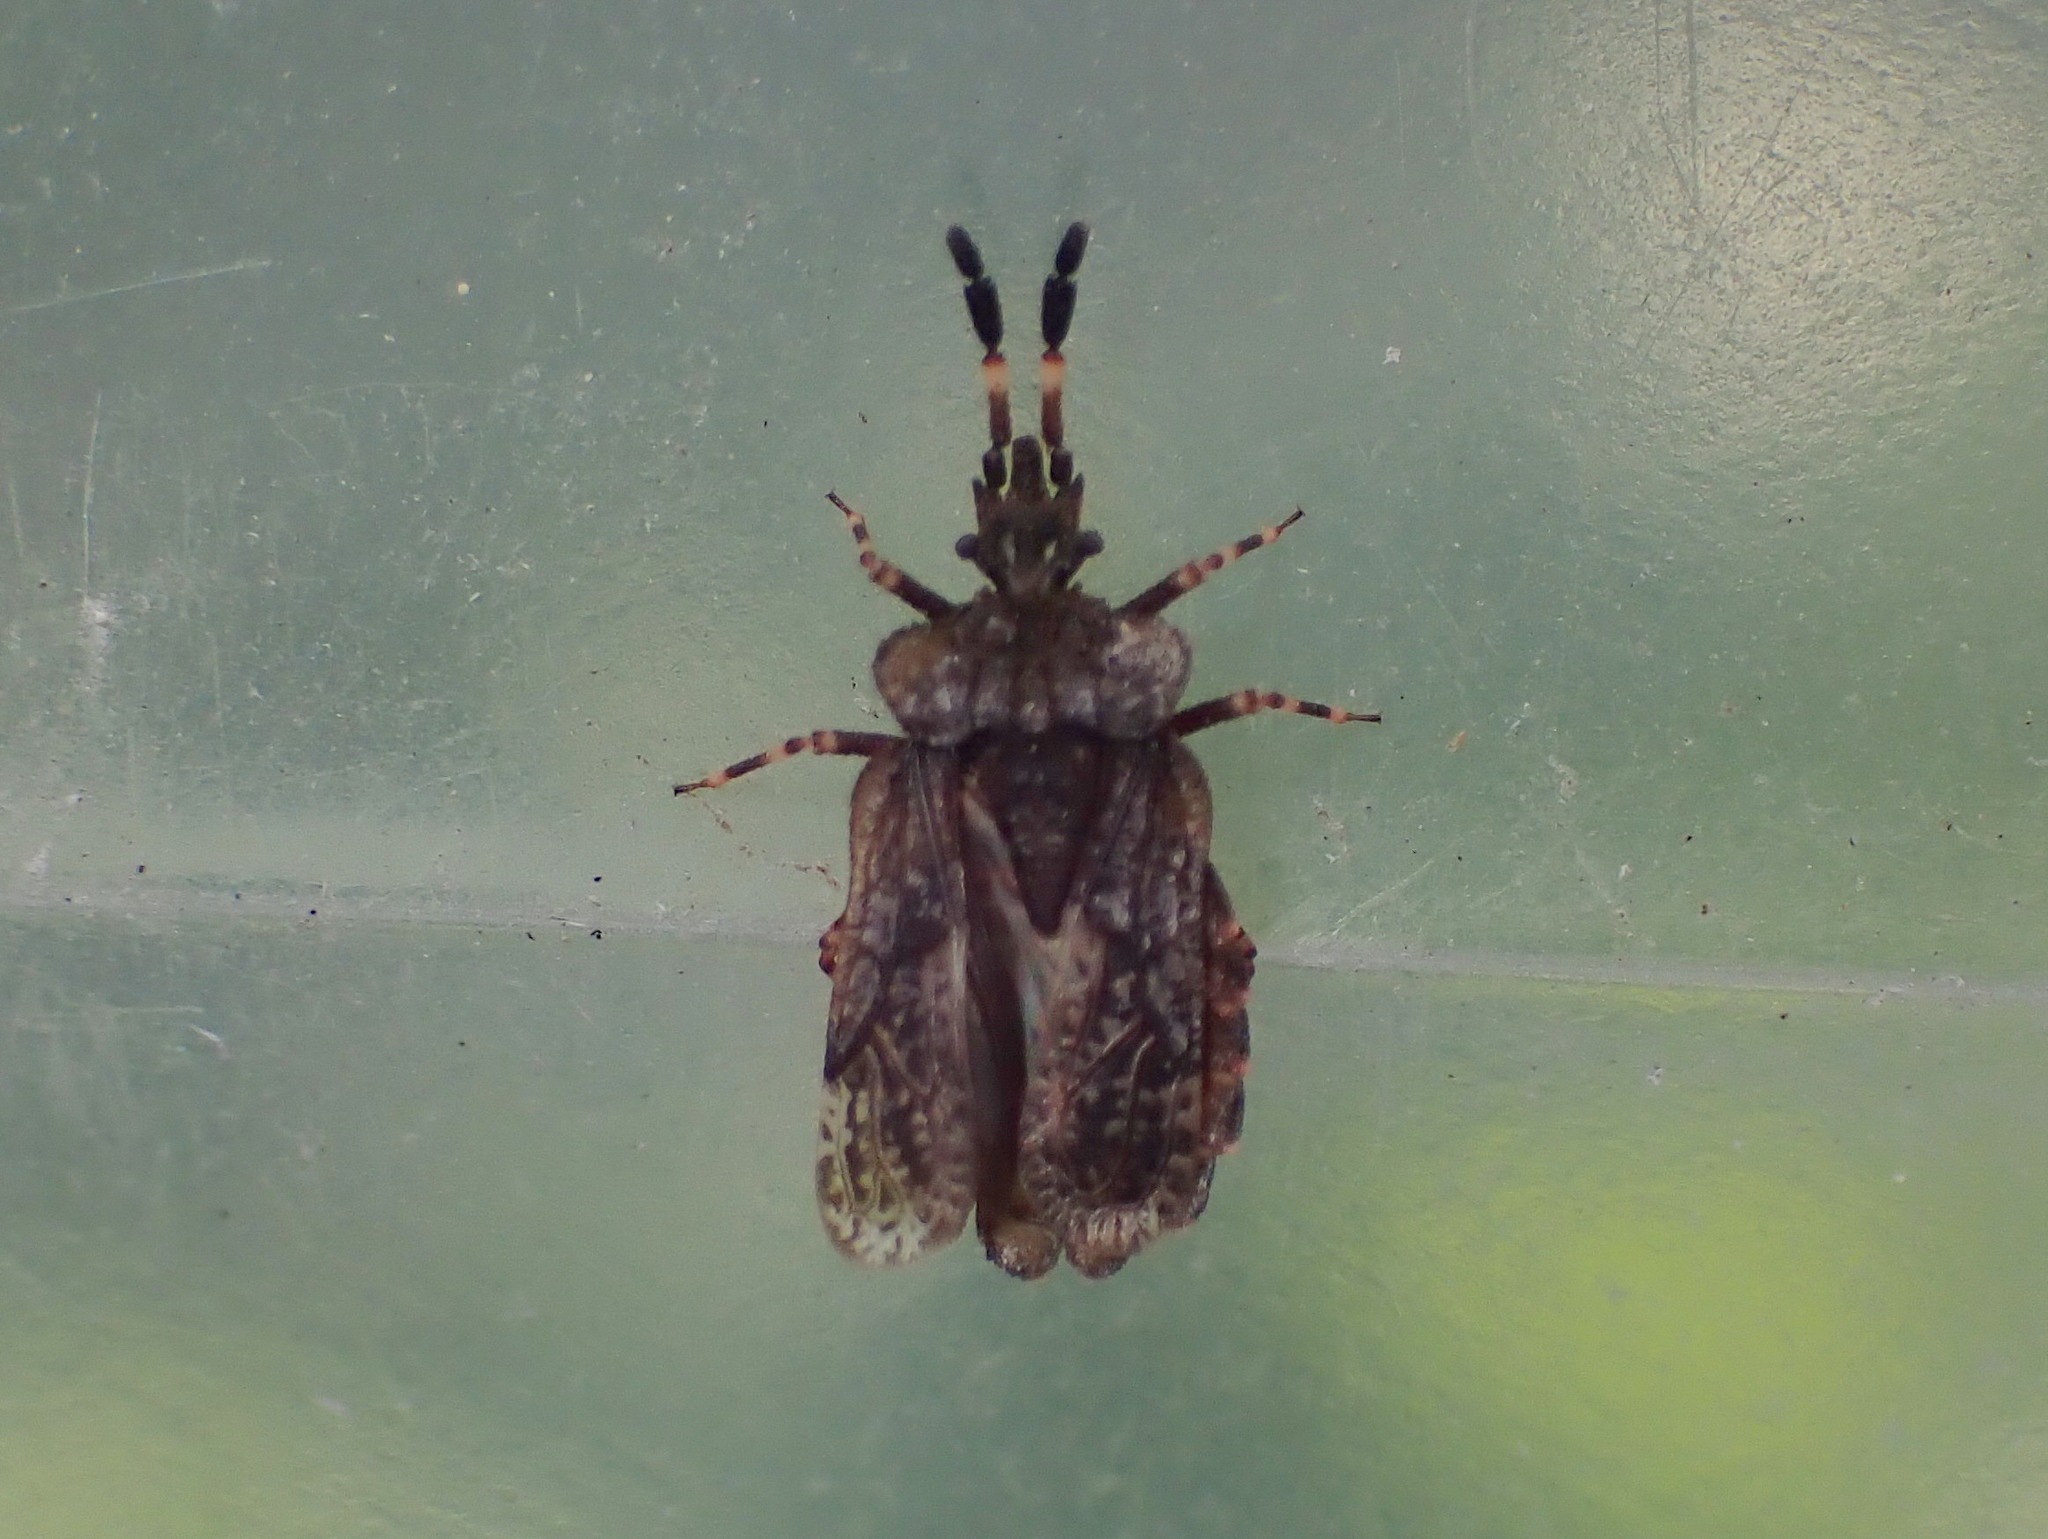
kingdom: Animalia
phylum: Arthropoda
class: Insecta
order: Hemiptera
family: Aradidae
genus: Aradus
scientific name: Aradus quadrilineatus
